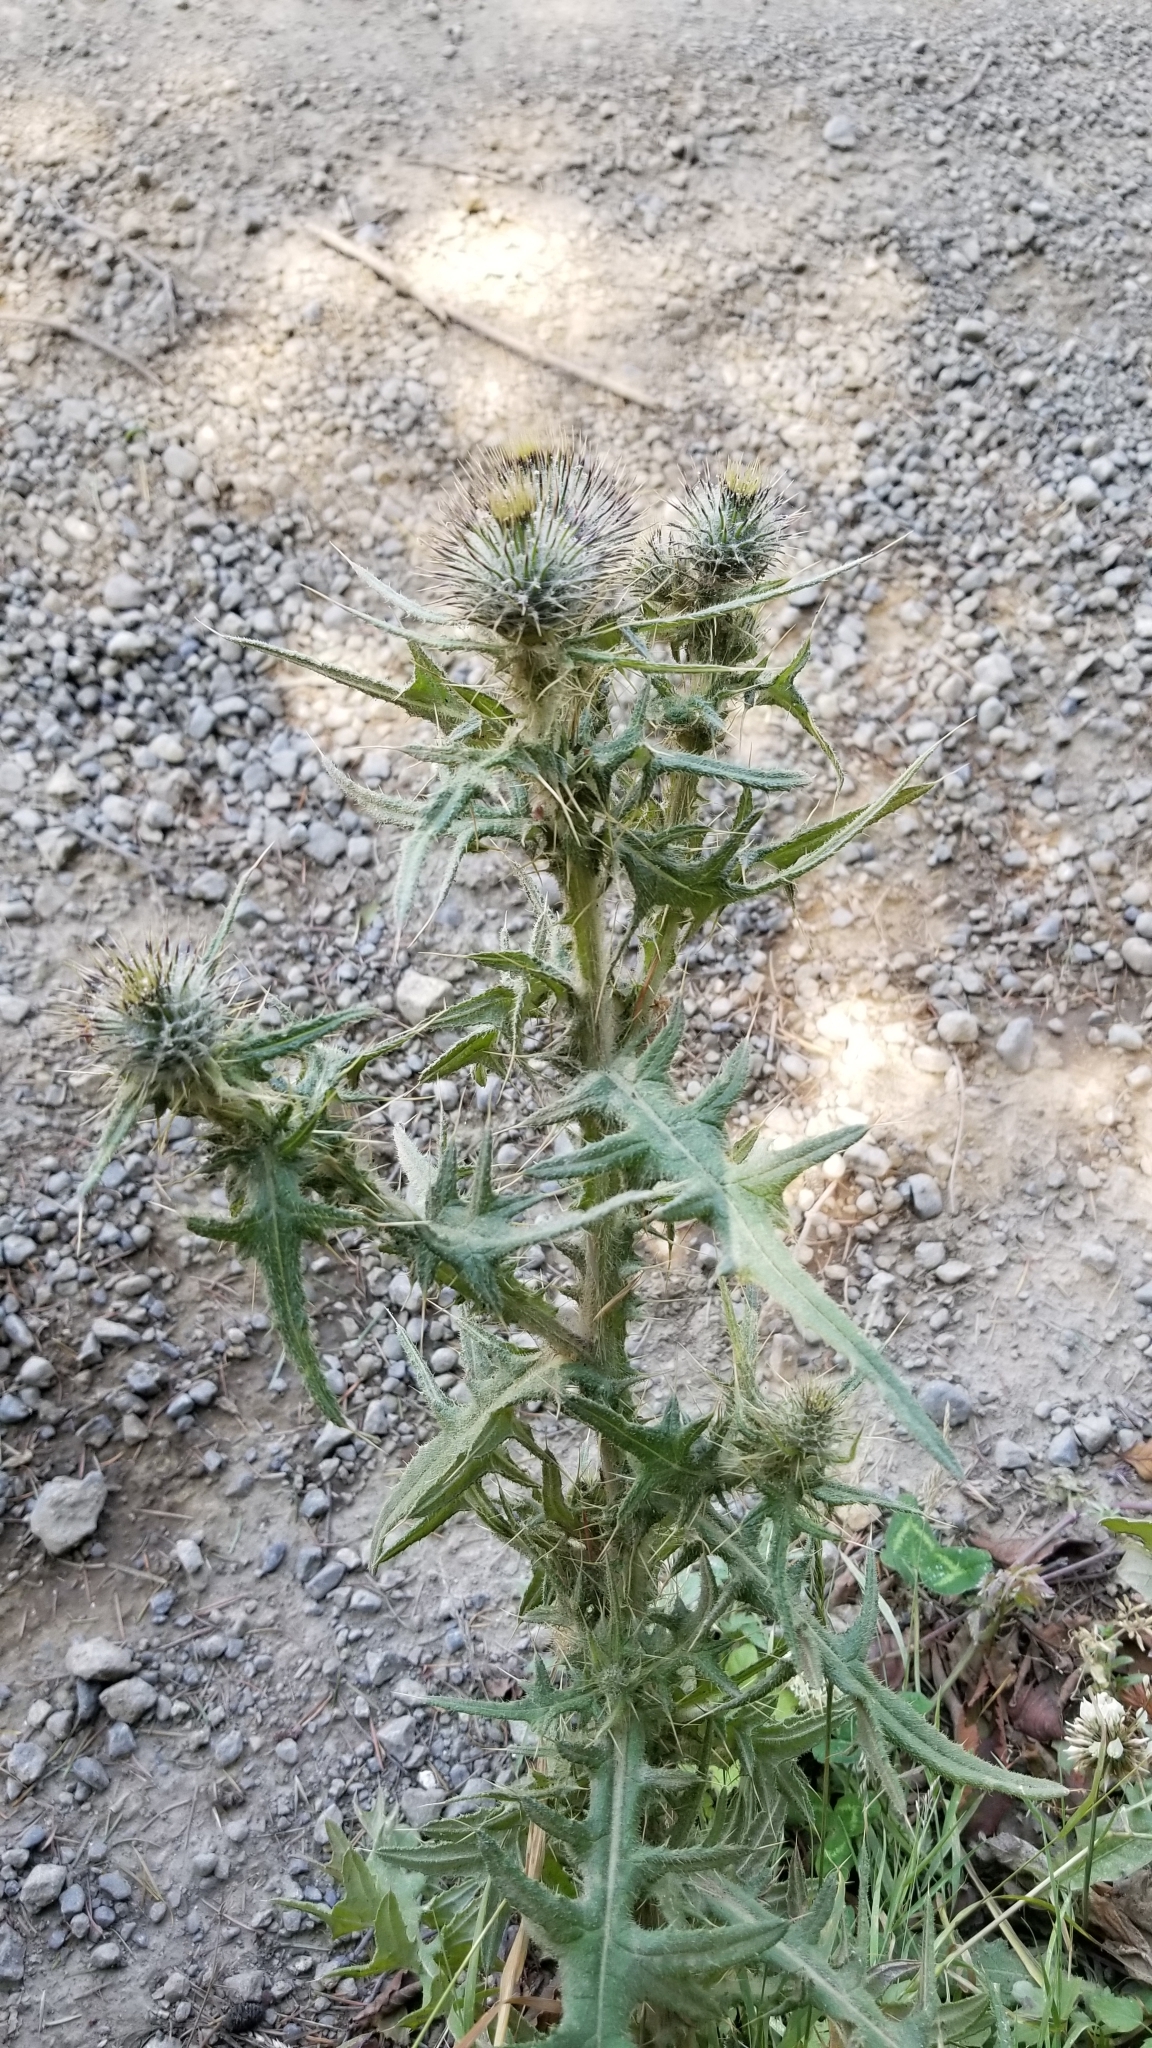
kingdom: Plantae
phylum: Tracheophyta
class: Magnoliopsida
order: Asterales
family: Asteraceae
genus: Cirsium
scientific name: Cirsium vulgare
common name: Bull thistle
